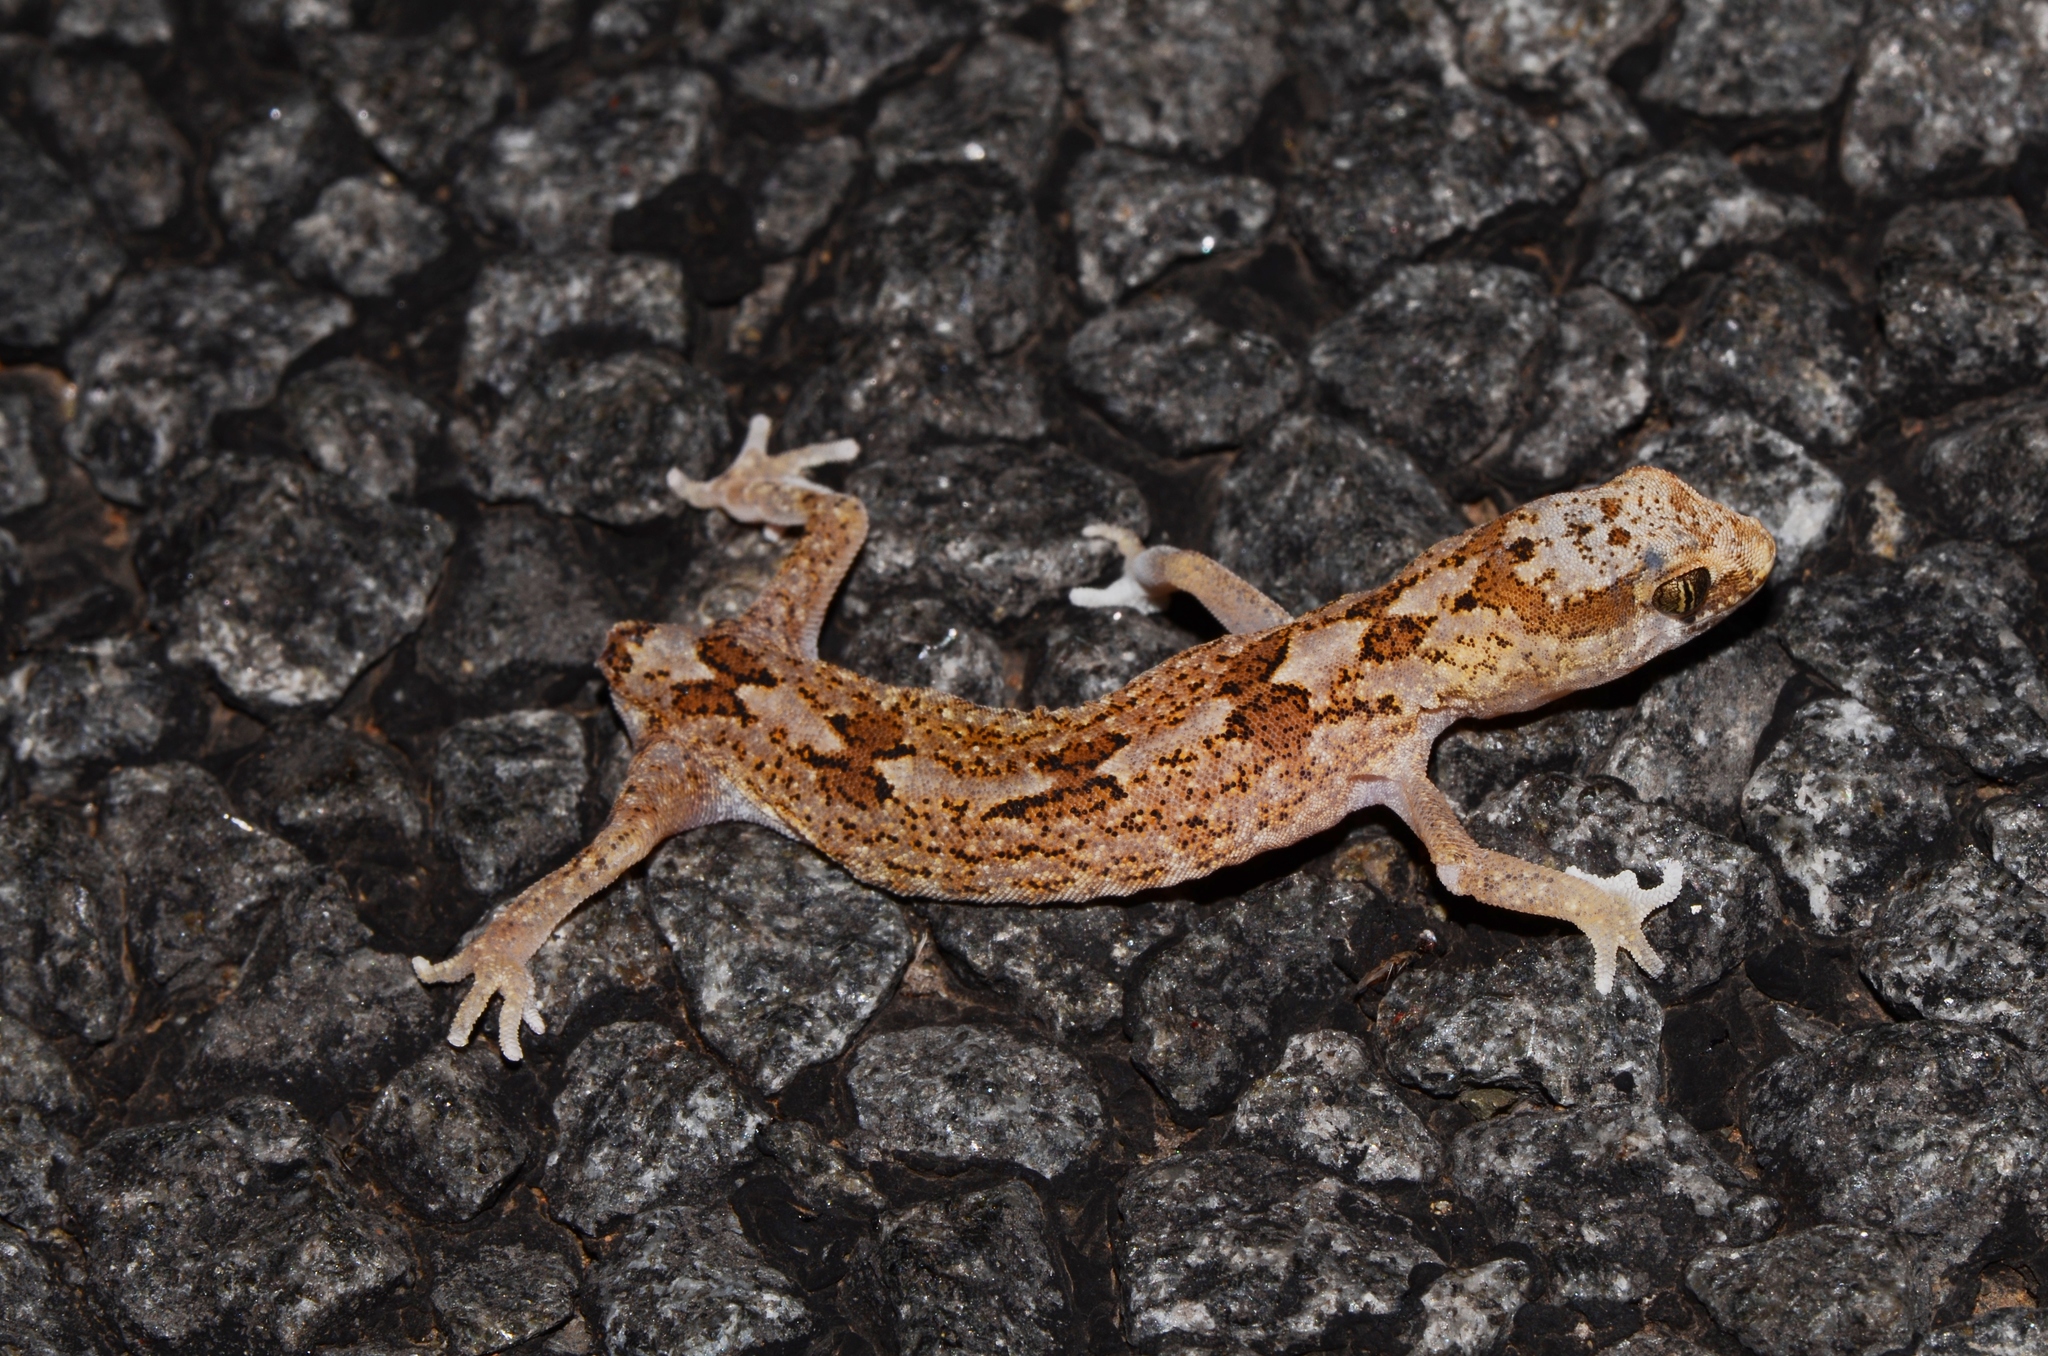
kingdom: Animalia
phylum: Chordata
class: Squamata
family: Gekkonidae
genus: Pachydactylus
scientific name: Pachydactylus latirostris
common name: Quartz gecko
